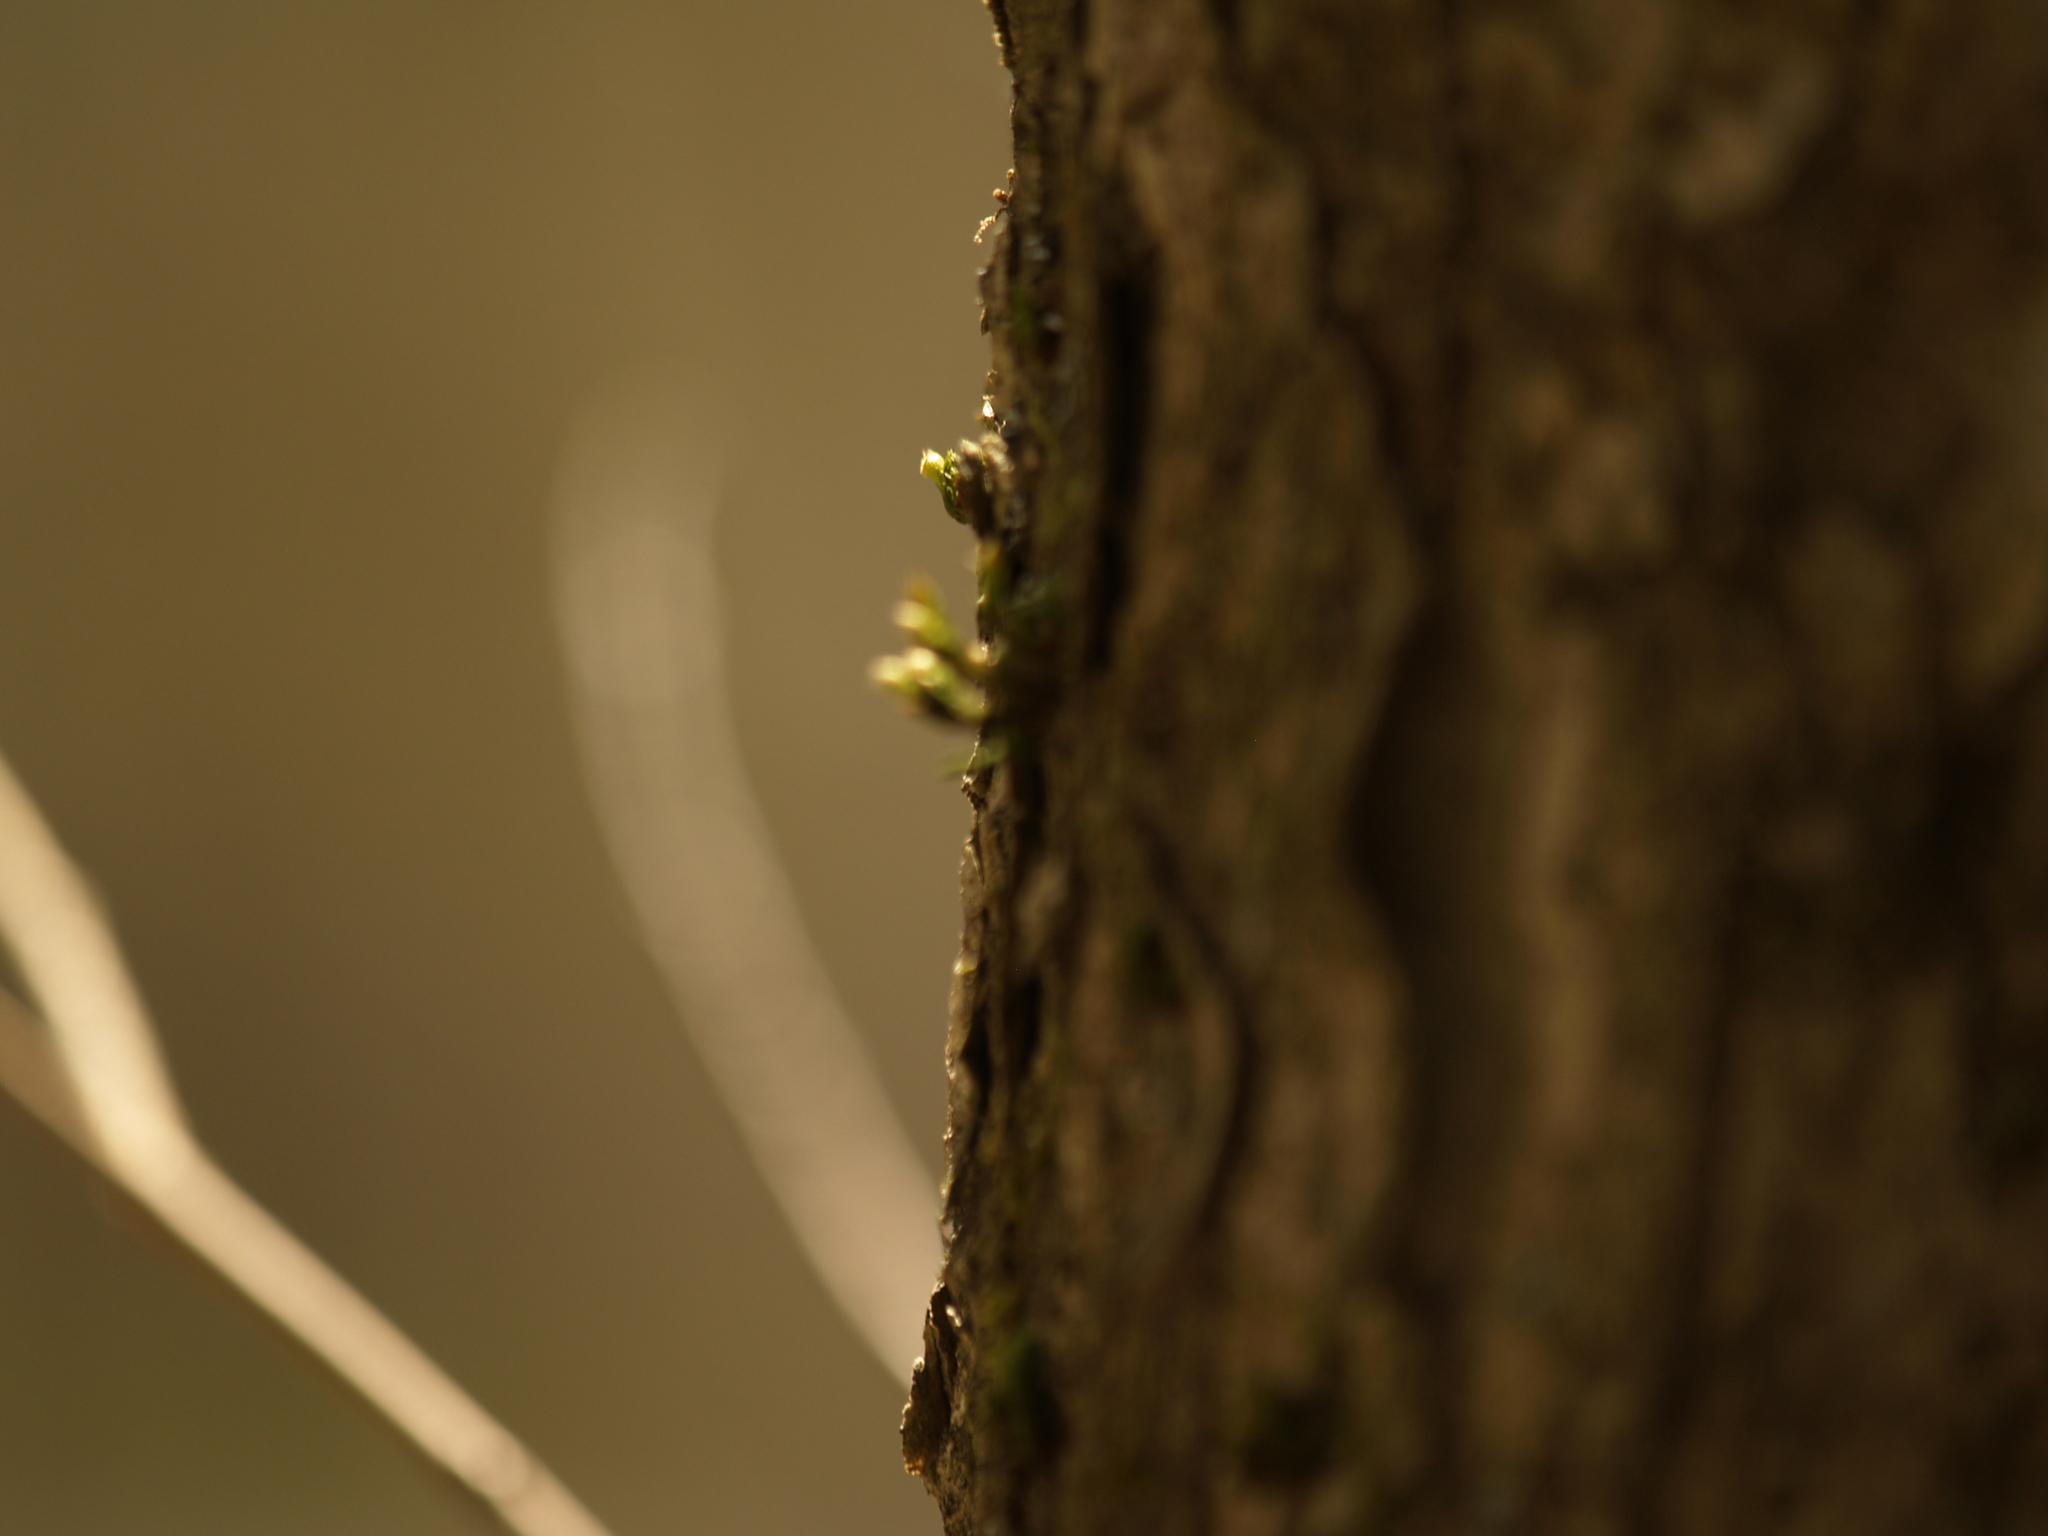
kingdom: Plantae
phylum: Bryophyta
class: Bryopsida
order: Orthotrichales
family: Orthotrichaceae
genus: Ulota
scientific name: Ulota crispa
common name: Crisped pincushion moss
